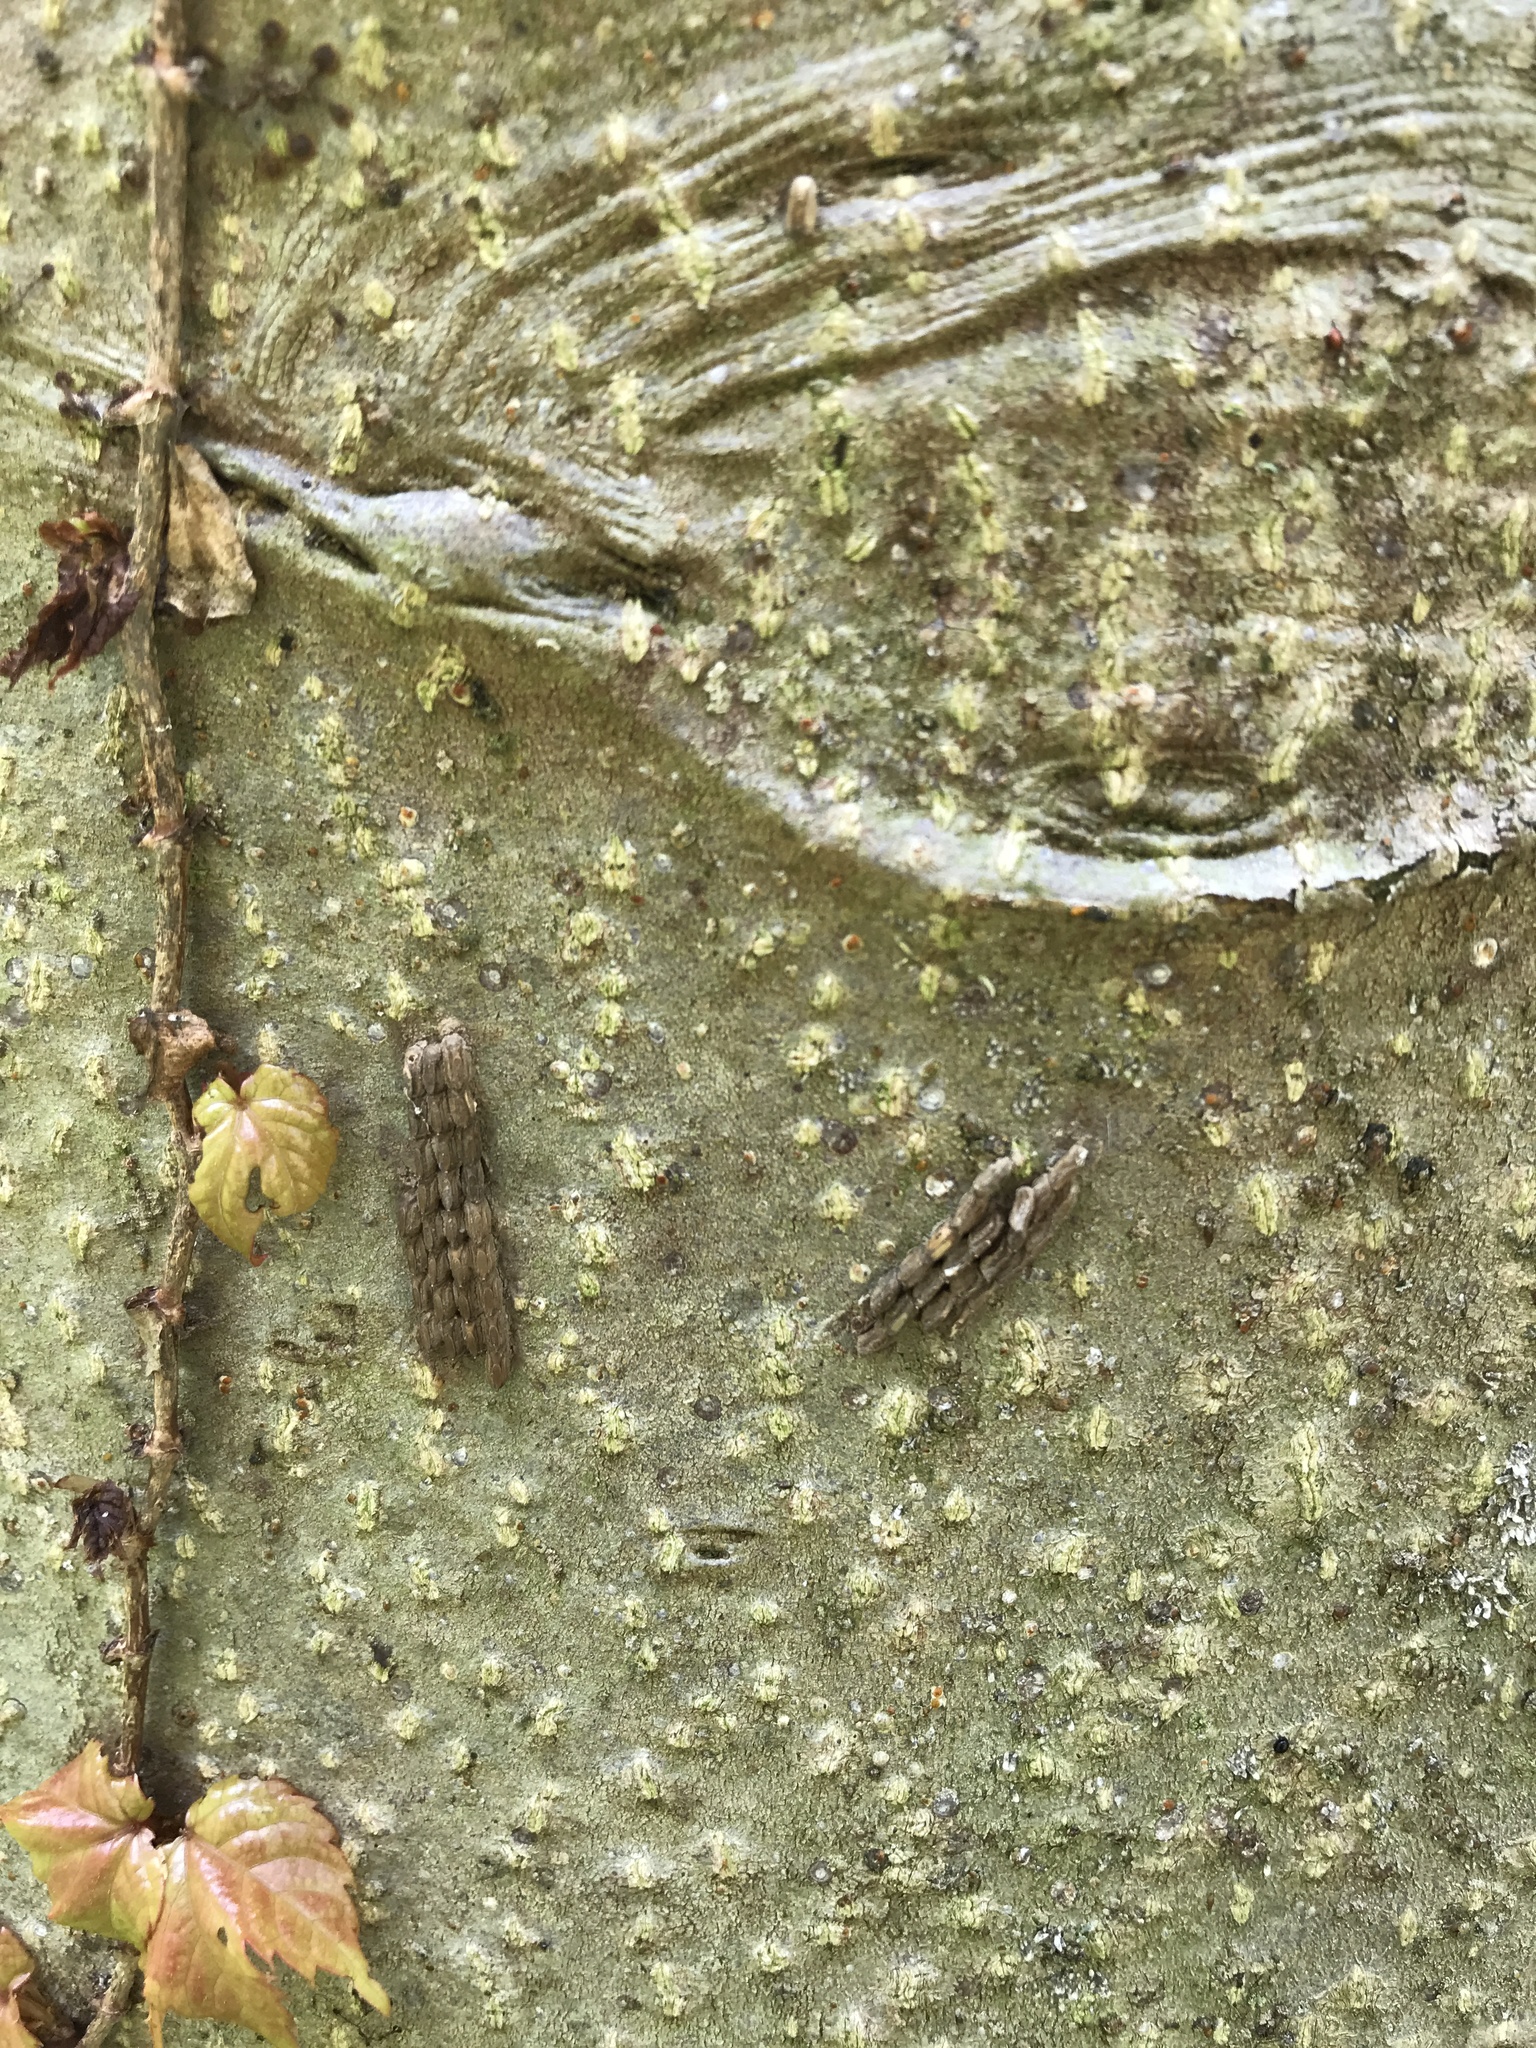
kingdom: Animalia
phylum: Arthropoda
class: Insecta
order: Hemiptera
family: Fulgoridae
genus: Lycorma
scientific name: Lycorma delicatula
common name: Spotted lanternfly
